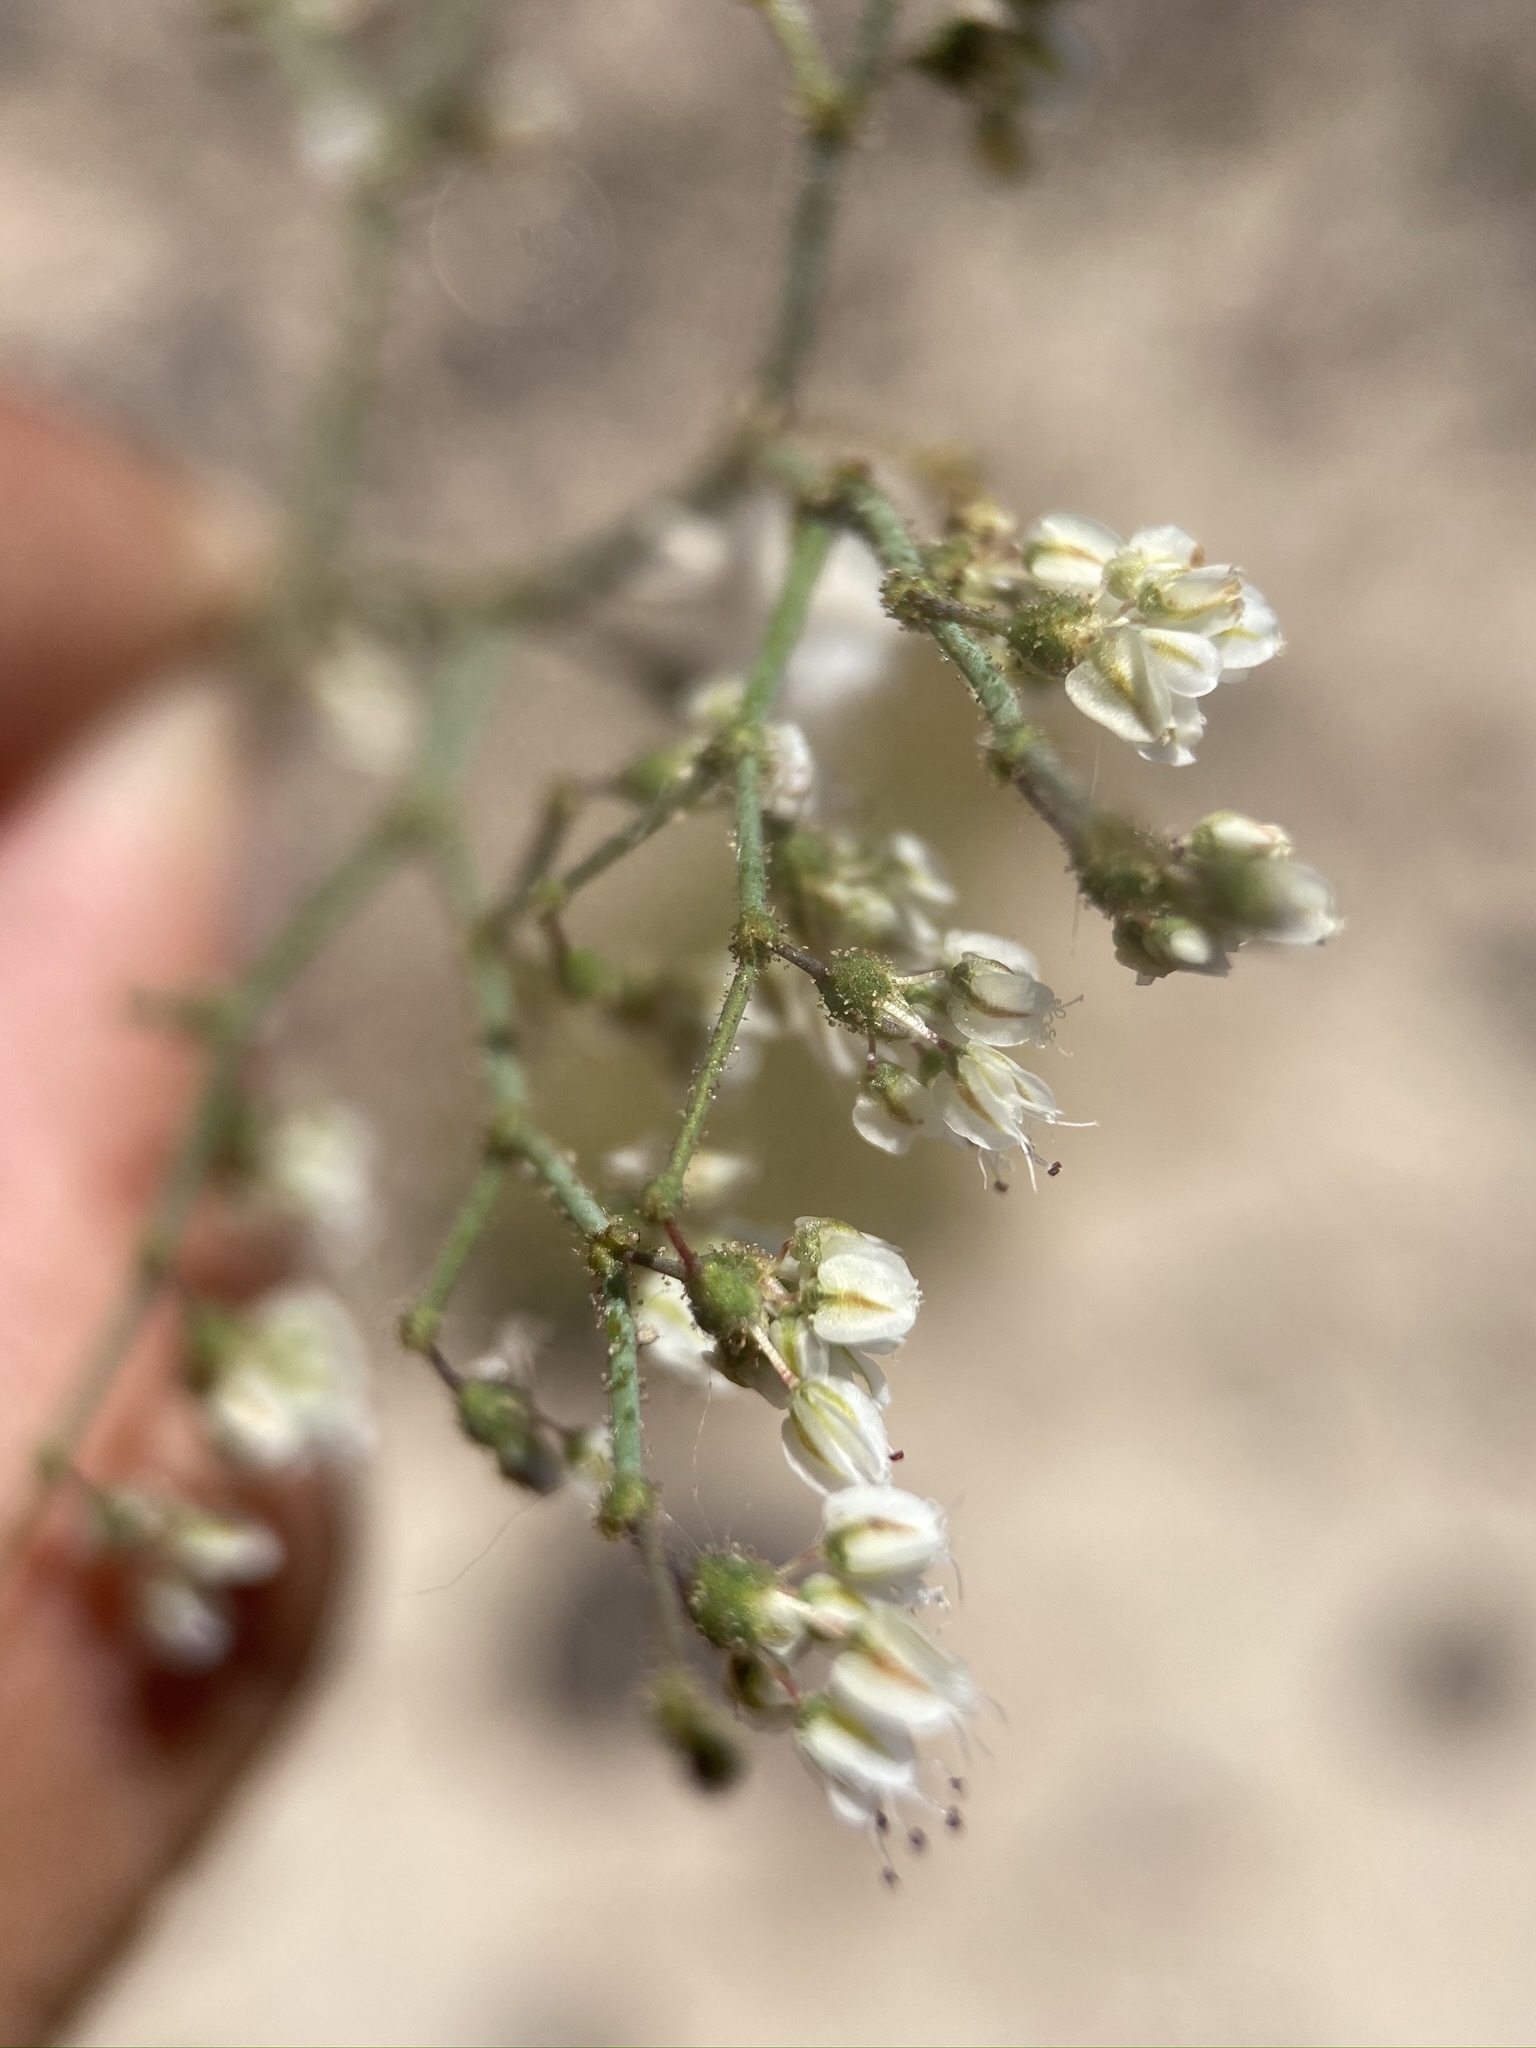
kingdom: Plantae
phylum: Tracheophyta
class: Magnoliopsida
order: Caryophyllales
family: Polygonaceae
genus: Eriogonum
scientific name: Eriogonum brachypodum
